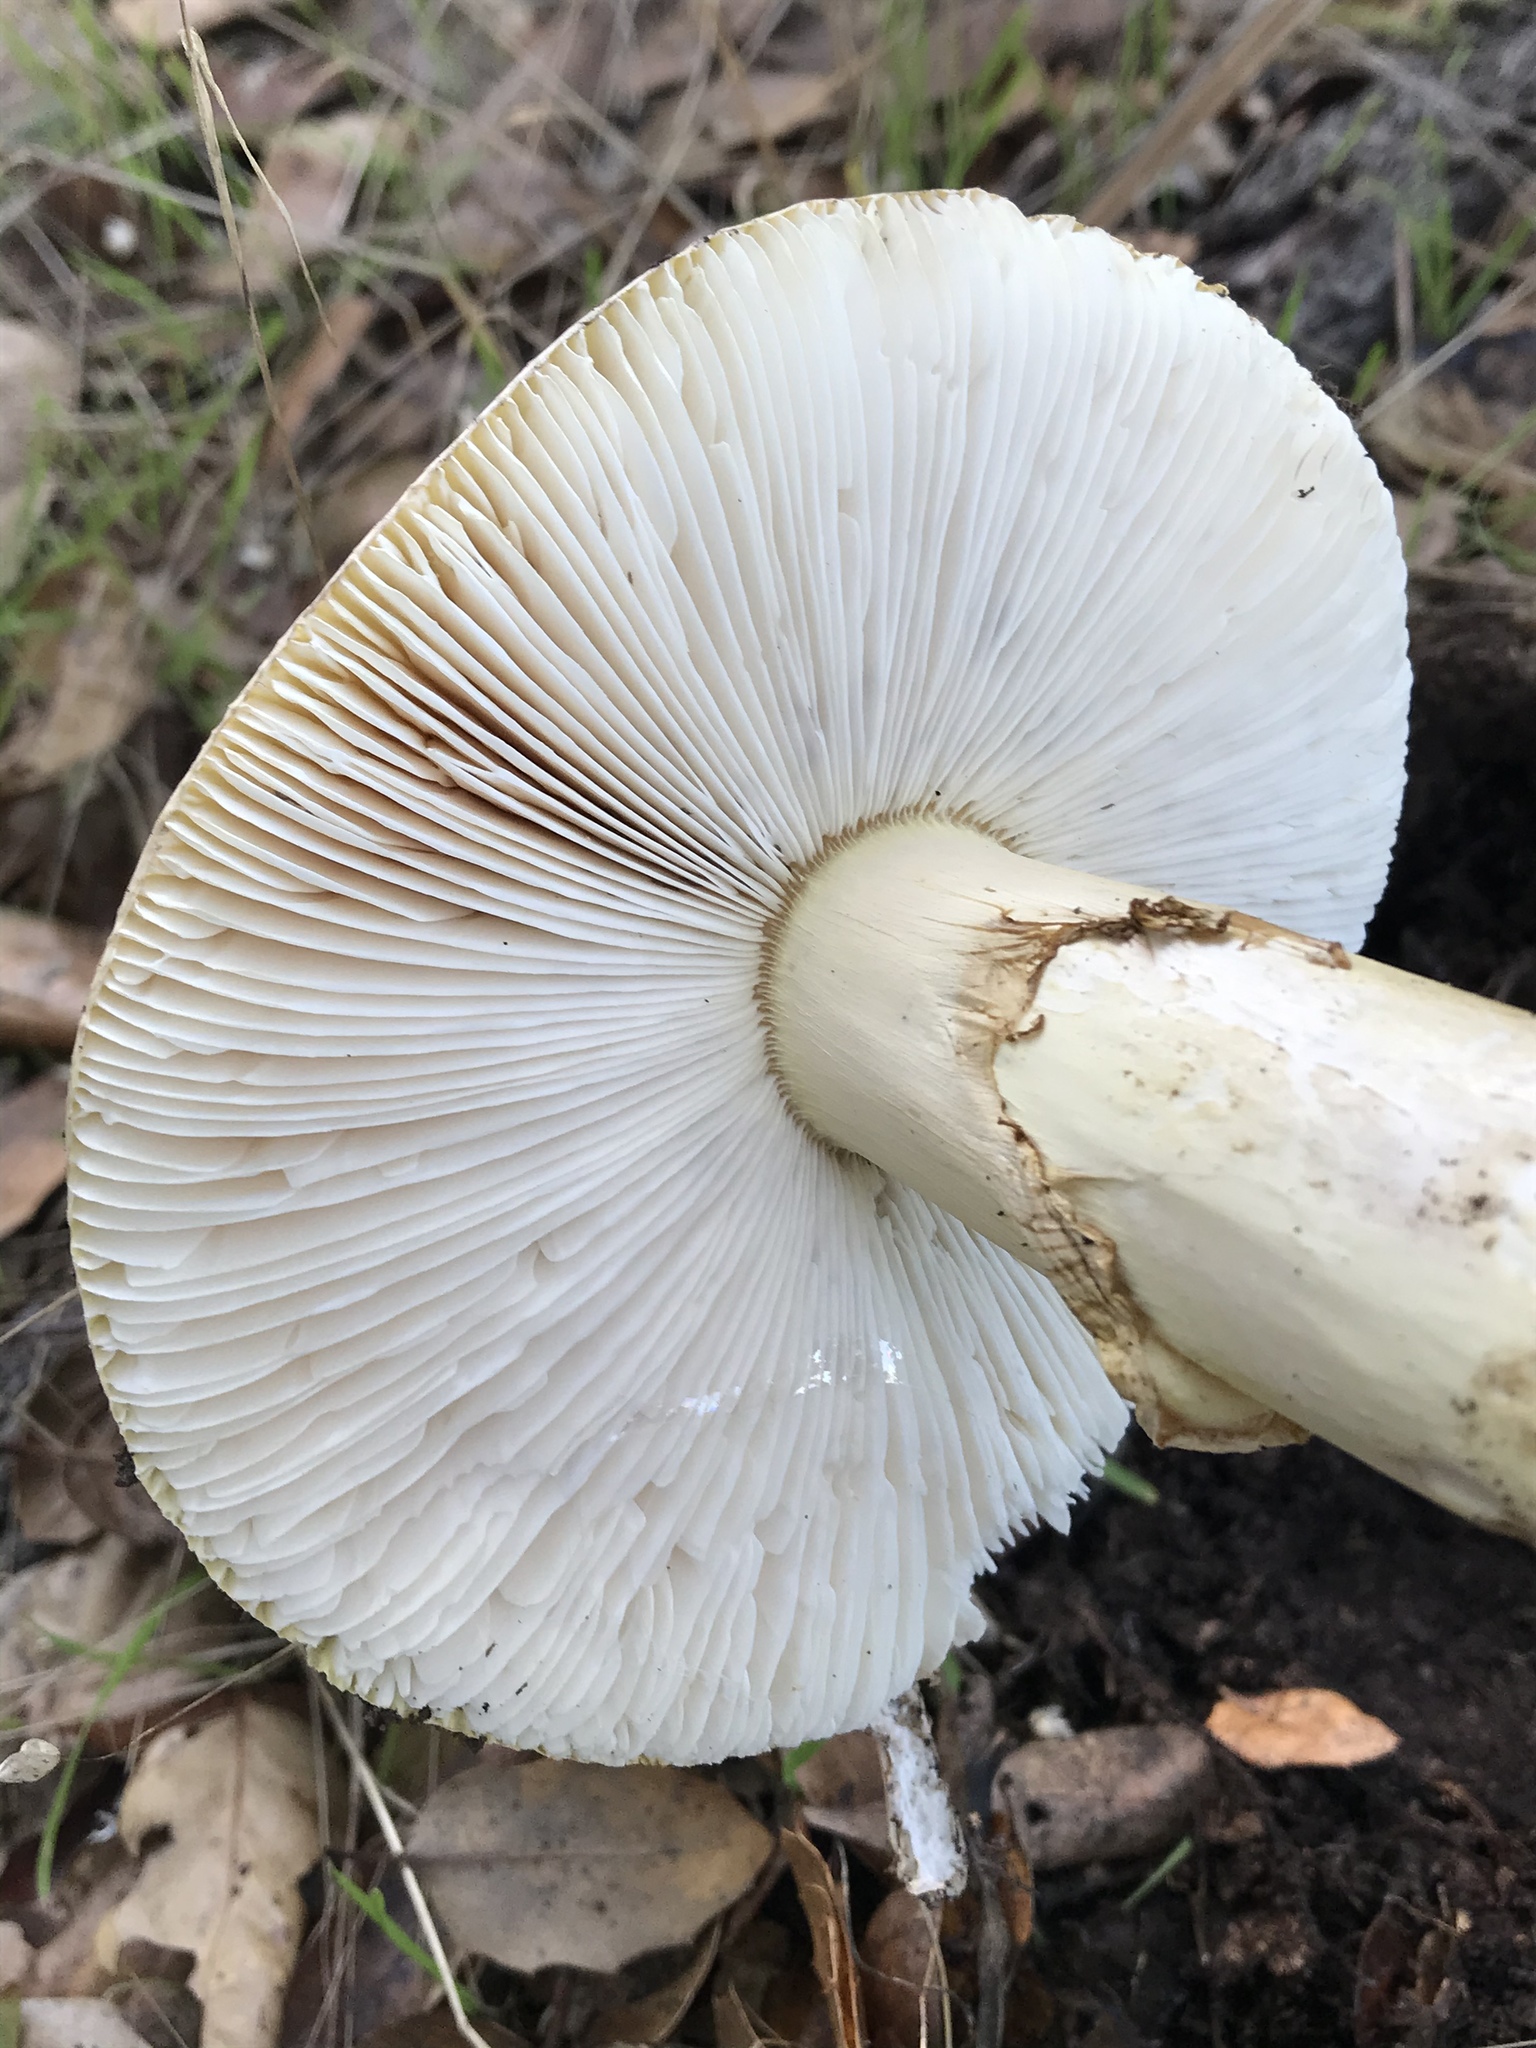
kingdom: Fungi
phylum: Basidiomycota
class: Agaricomycetes
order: Agaricales
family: Amanitaceae
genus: Amanita
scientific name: Amanita calyptroderma
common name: Coccora
